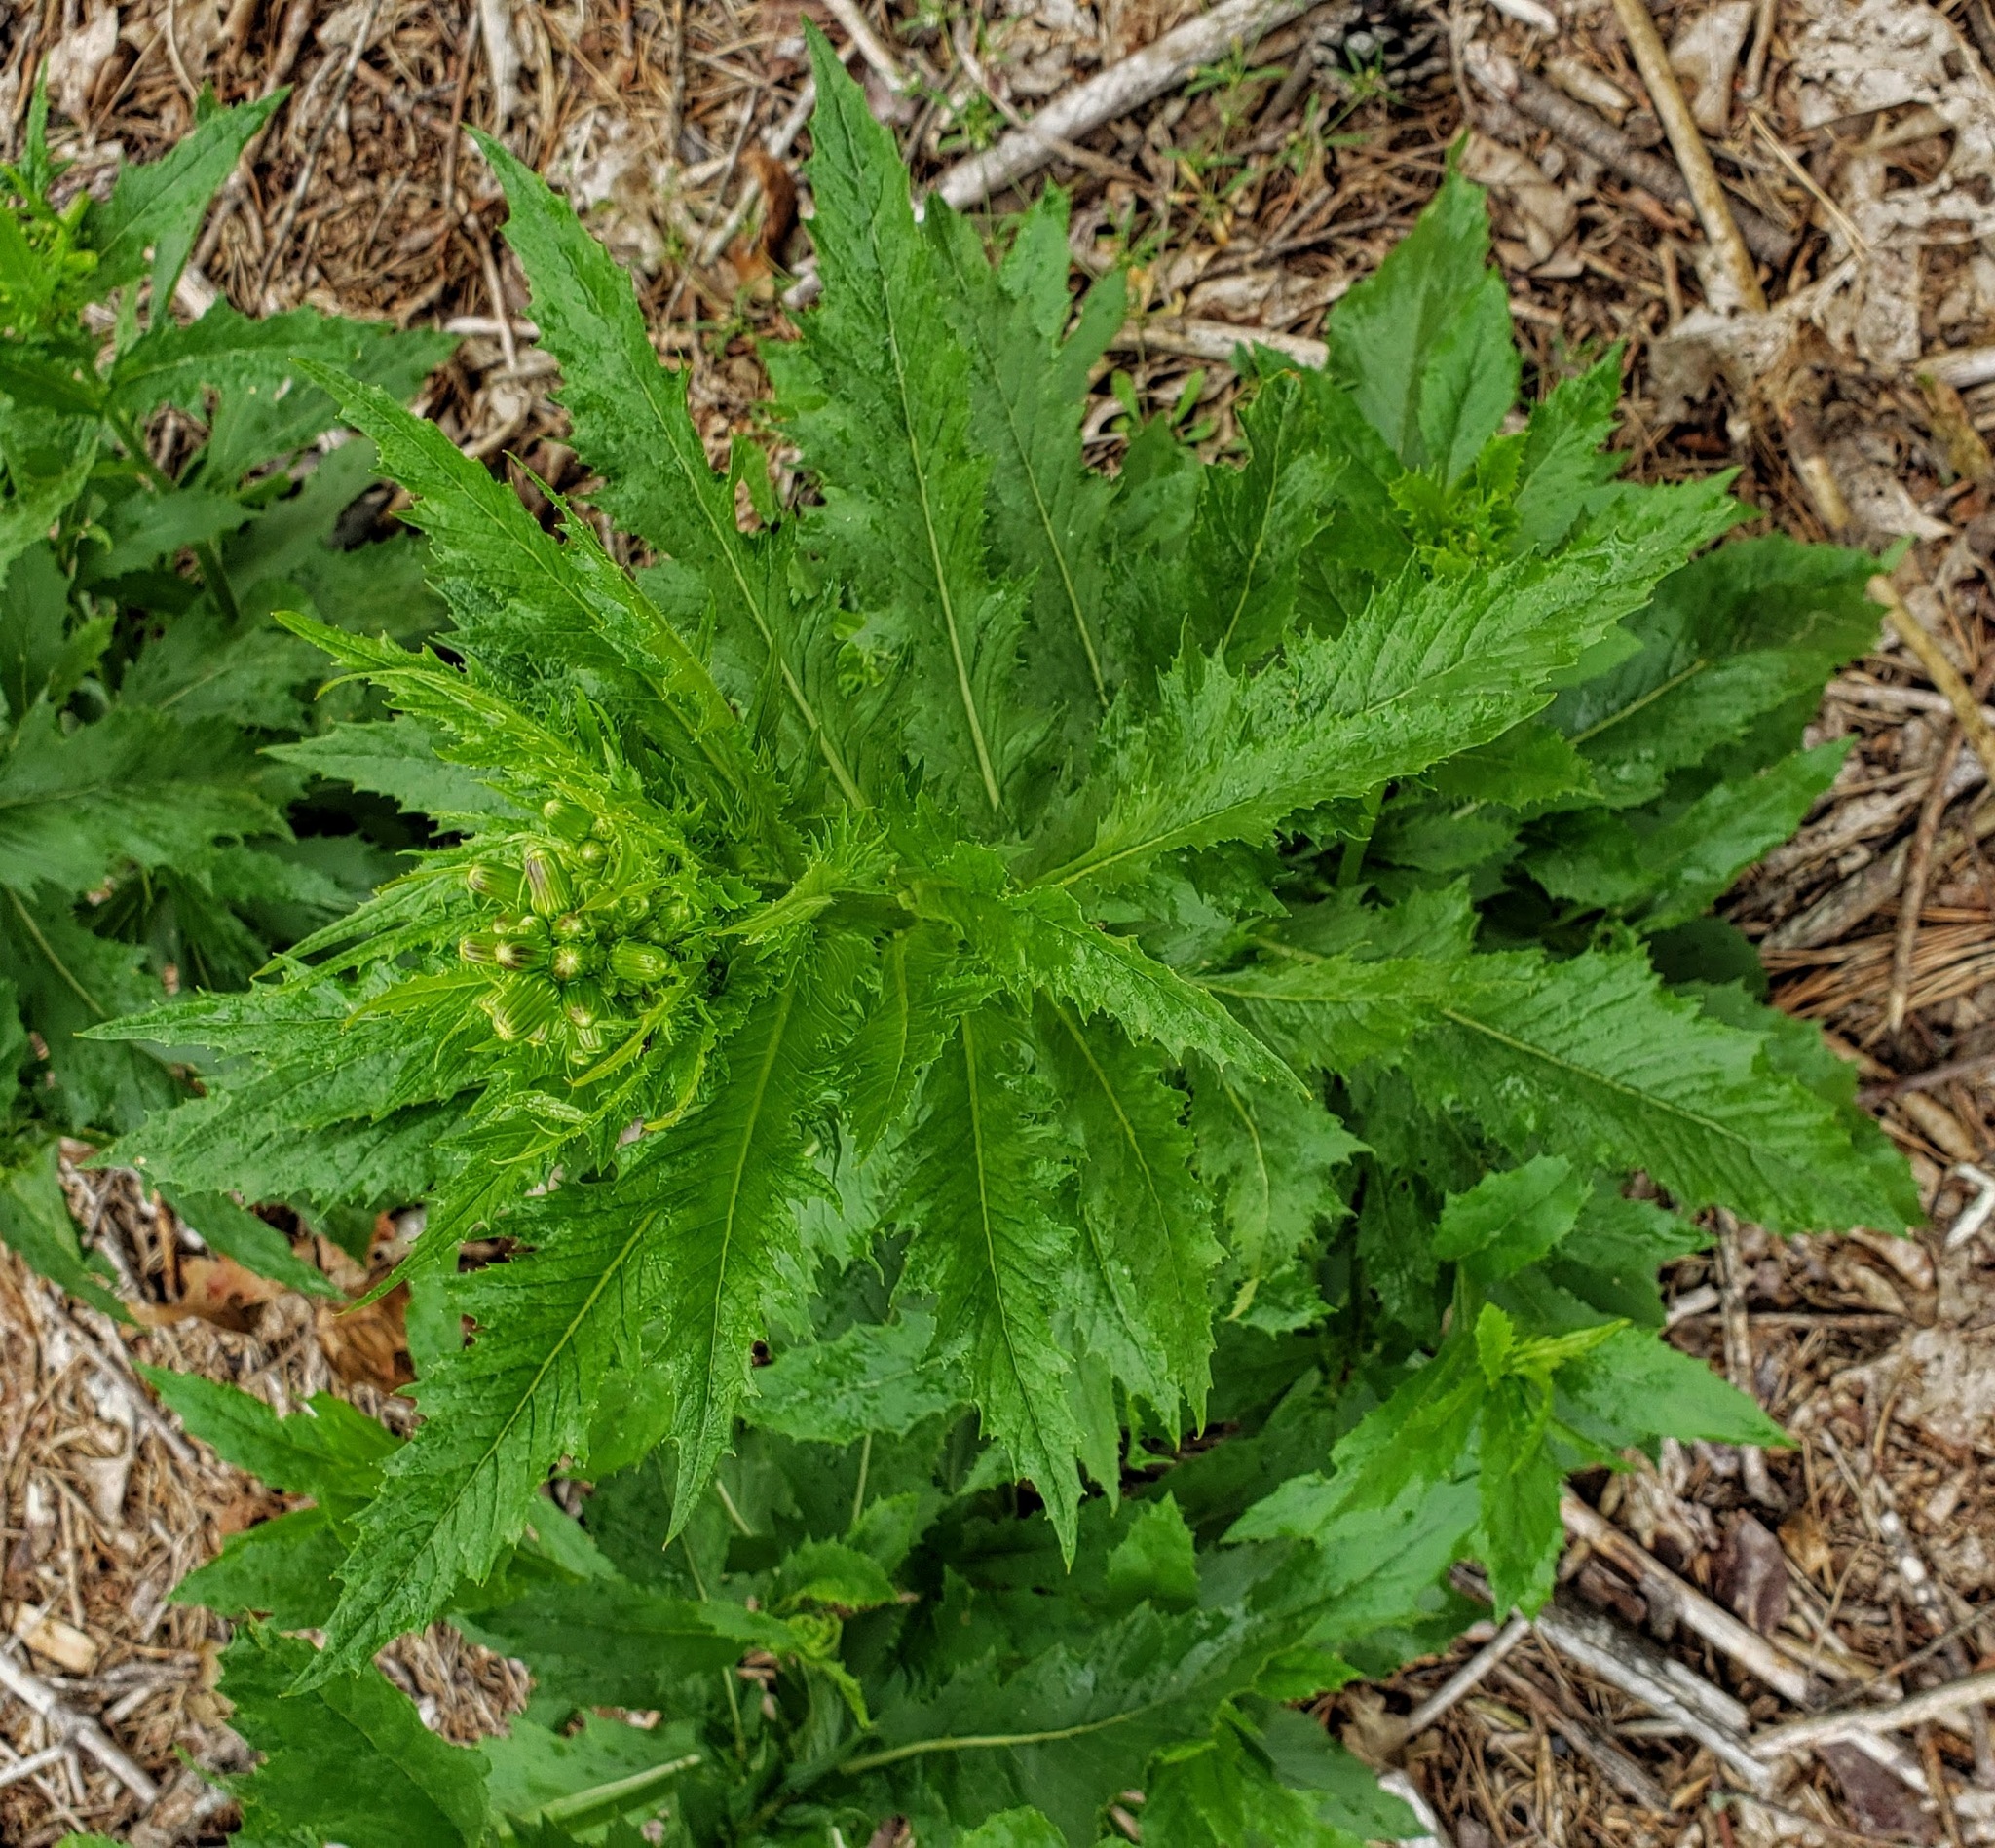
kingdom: Plantae
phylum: Tracheophyta
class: Magnoliopsida
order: Asterales
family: Asteraceae
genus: Erechtites
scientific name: Erechtites hieraciifolius
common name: American burnweed
